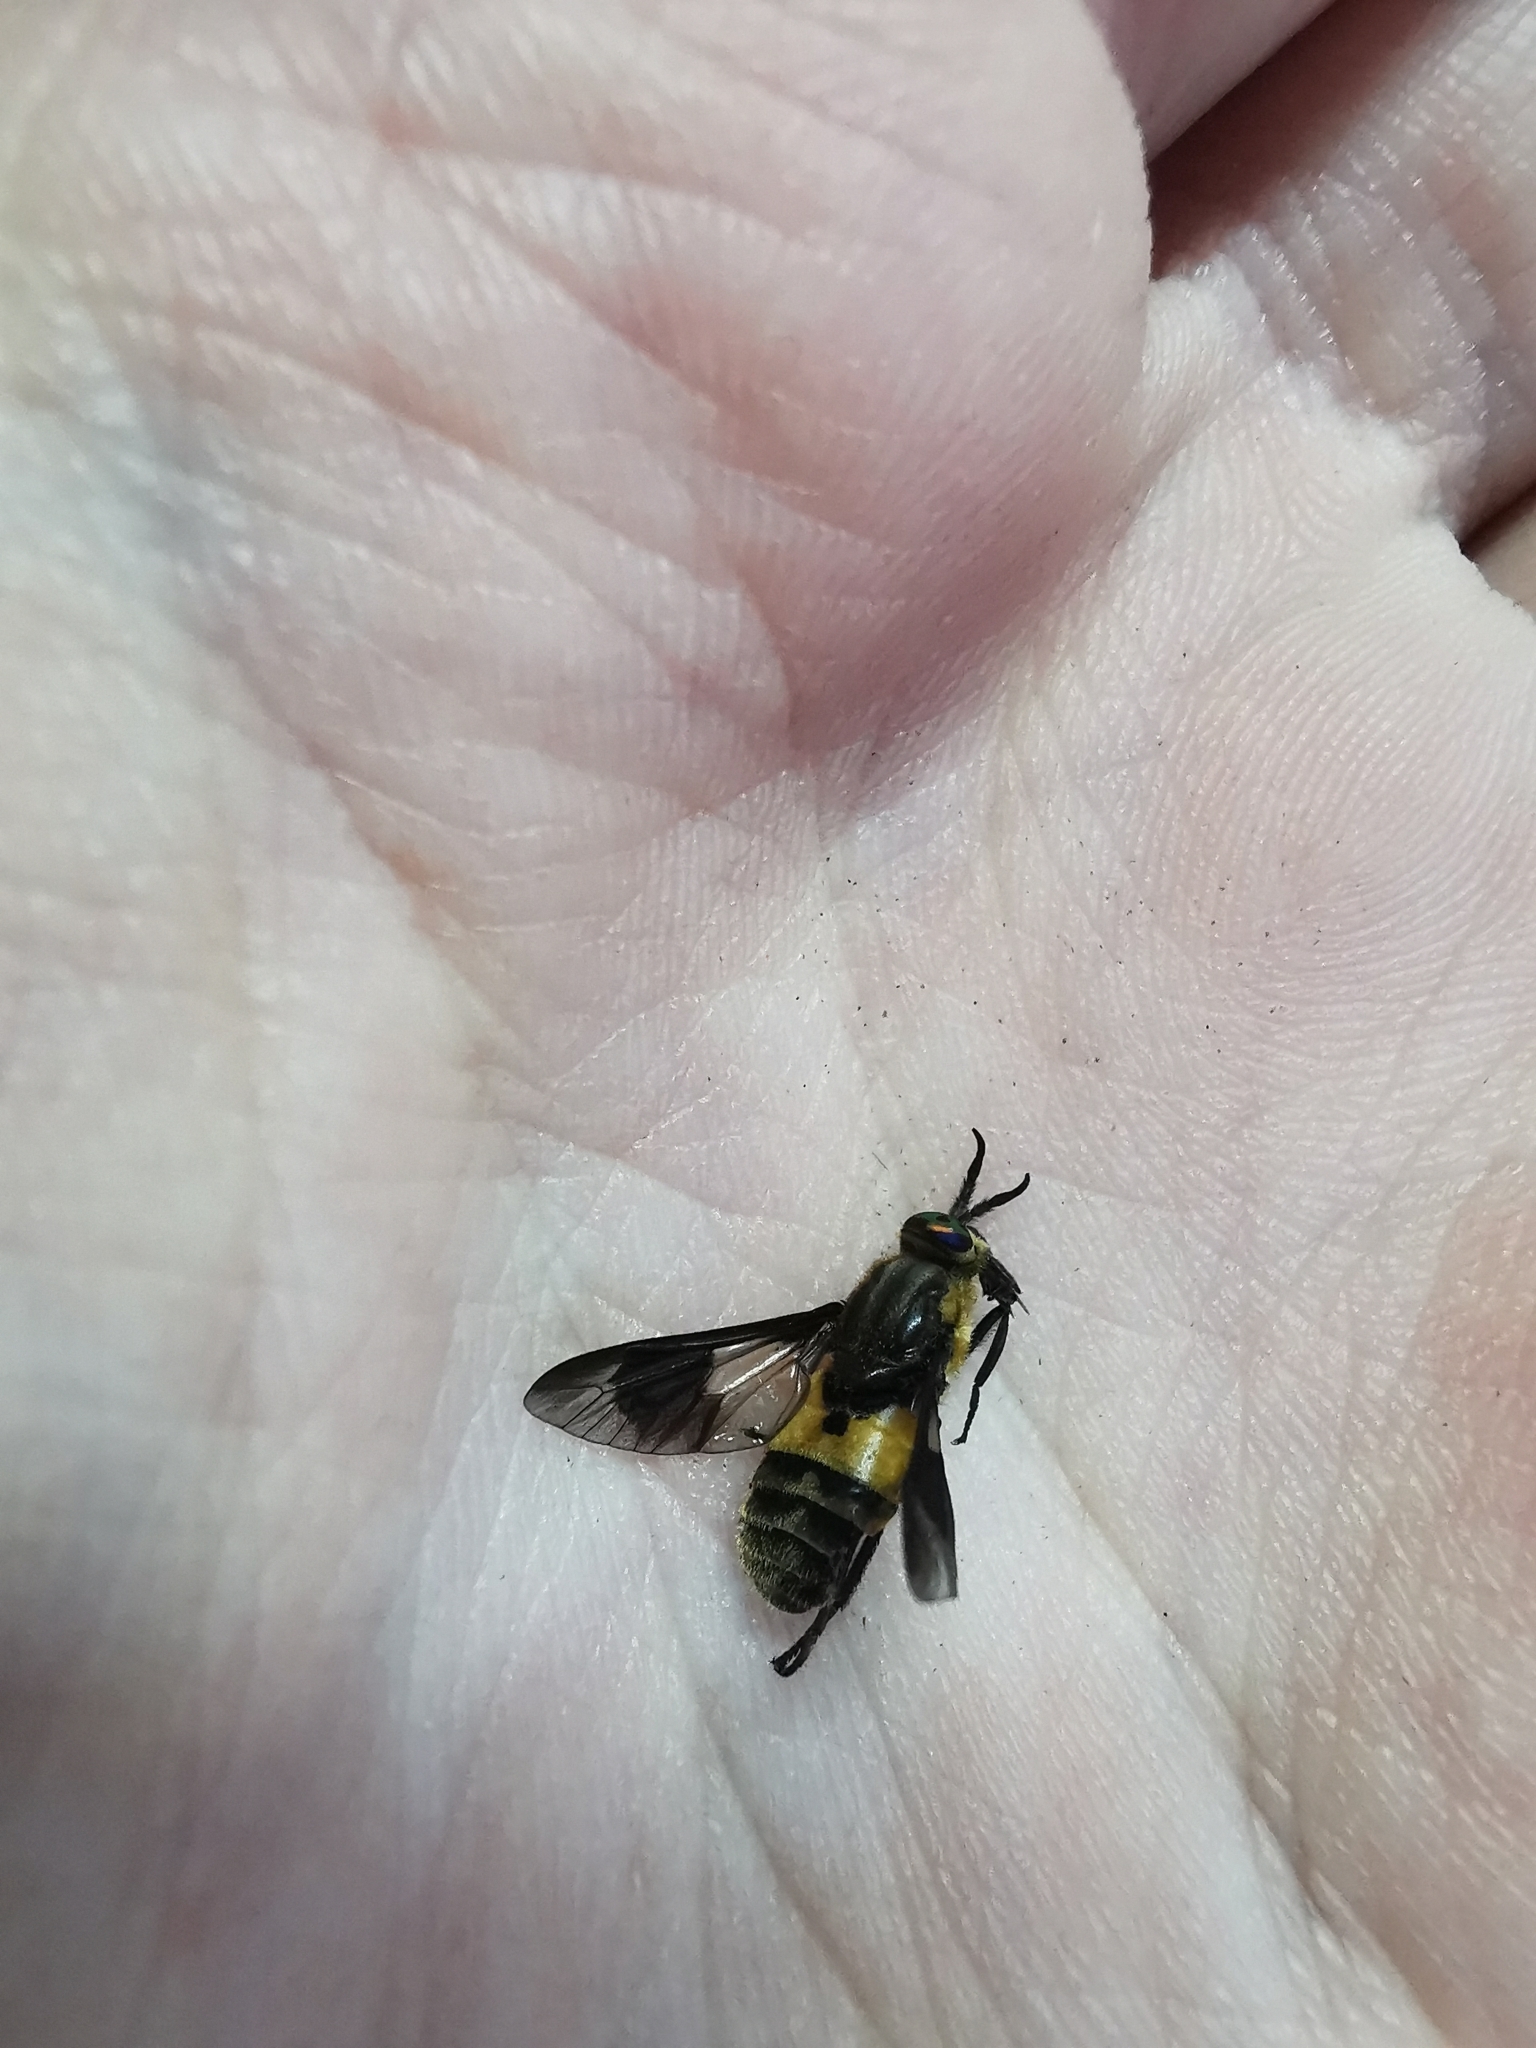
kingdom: Animalia
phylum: Arthropoda
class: Insecta
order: Diptera
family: Tabanidae
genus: Chrysops
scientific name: Chrysops viduatus
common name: Square-spot deerfly
